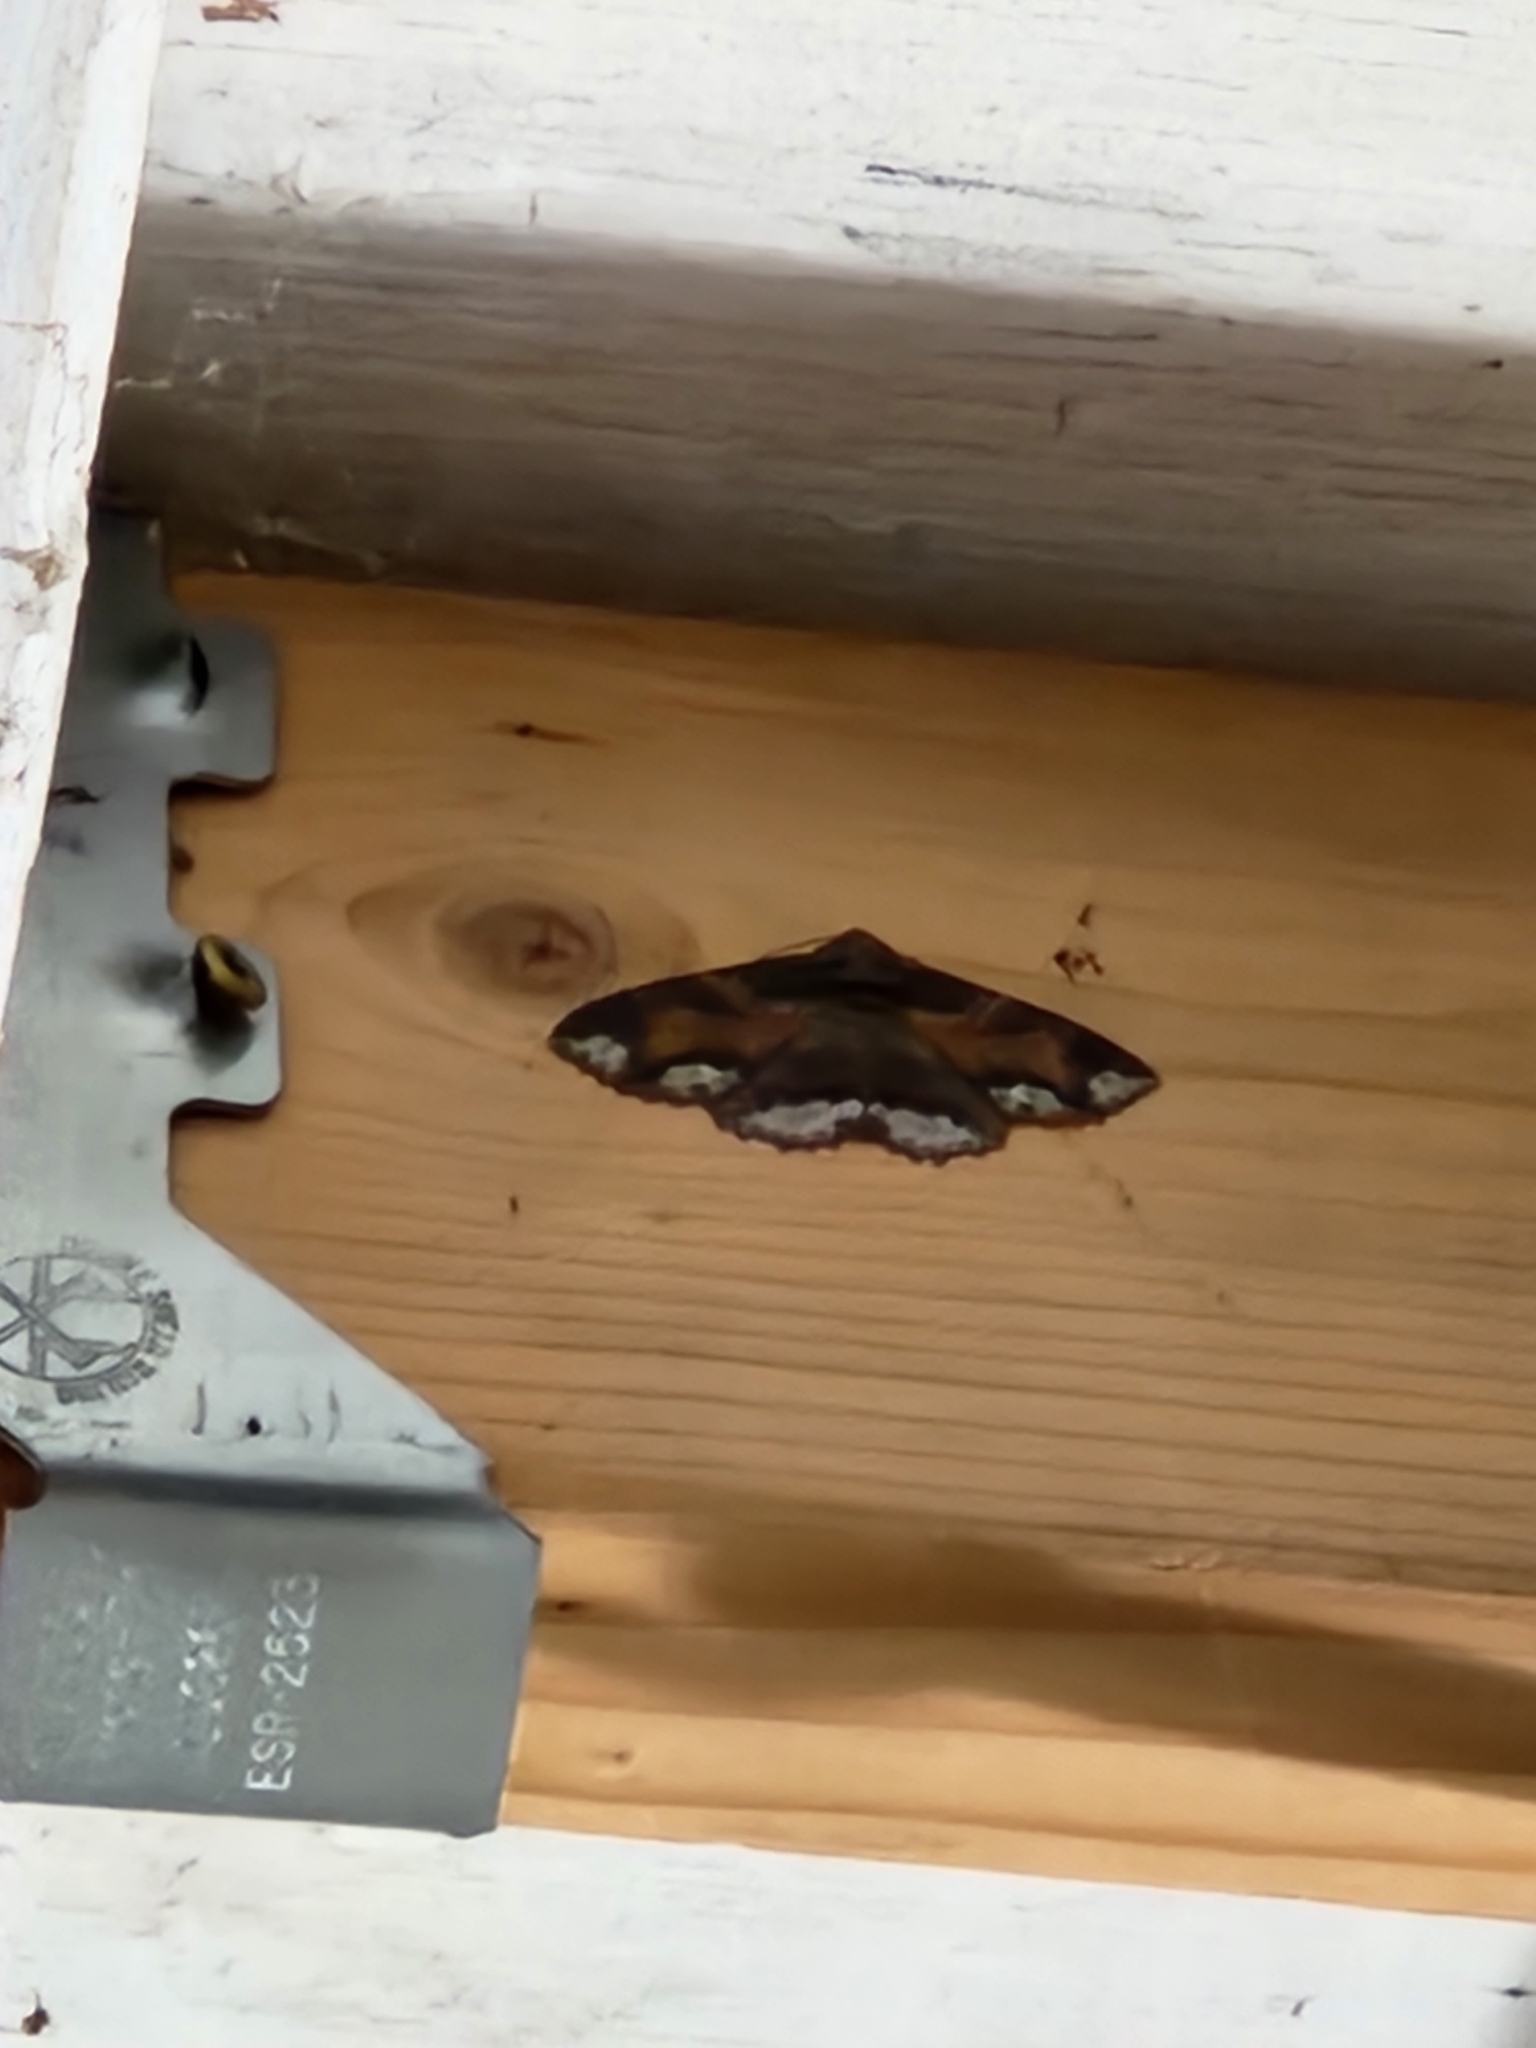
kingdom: Animalia
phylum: Arthropoda
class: Insecta
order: Lepidoptera
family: Erebidae
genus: Zale
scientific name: Zale lunata
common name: Lunate zale moth
